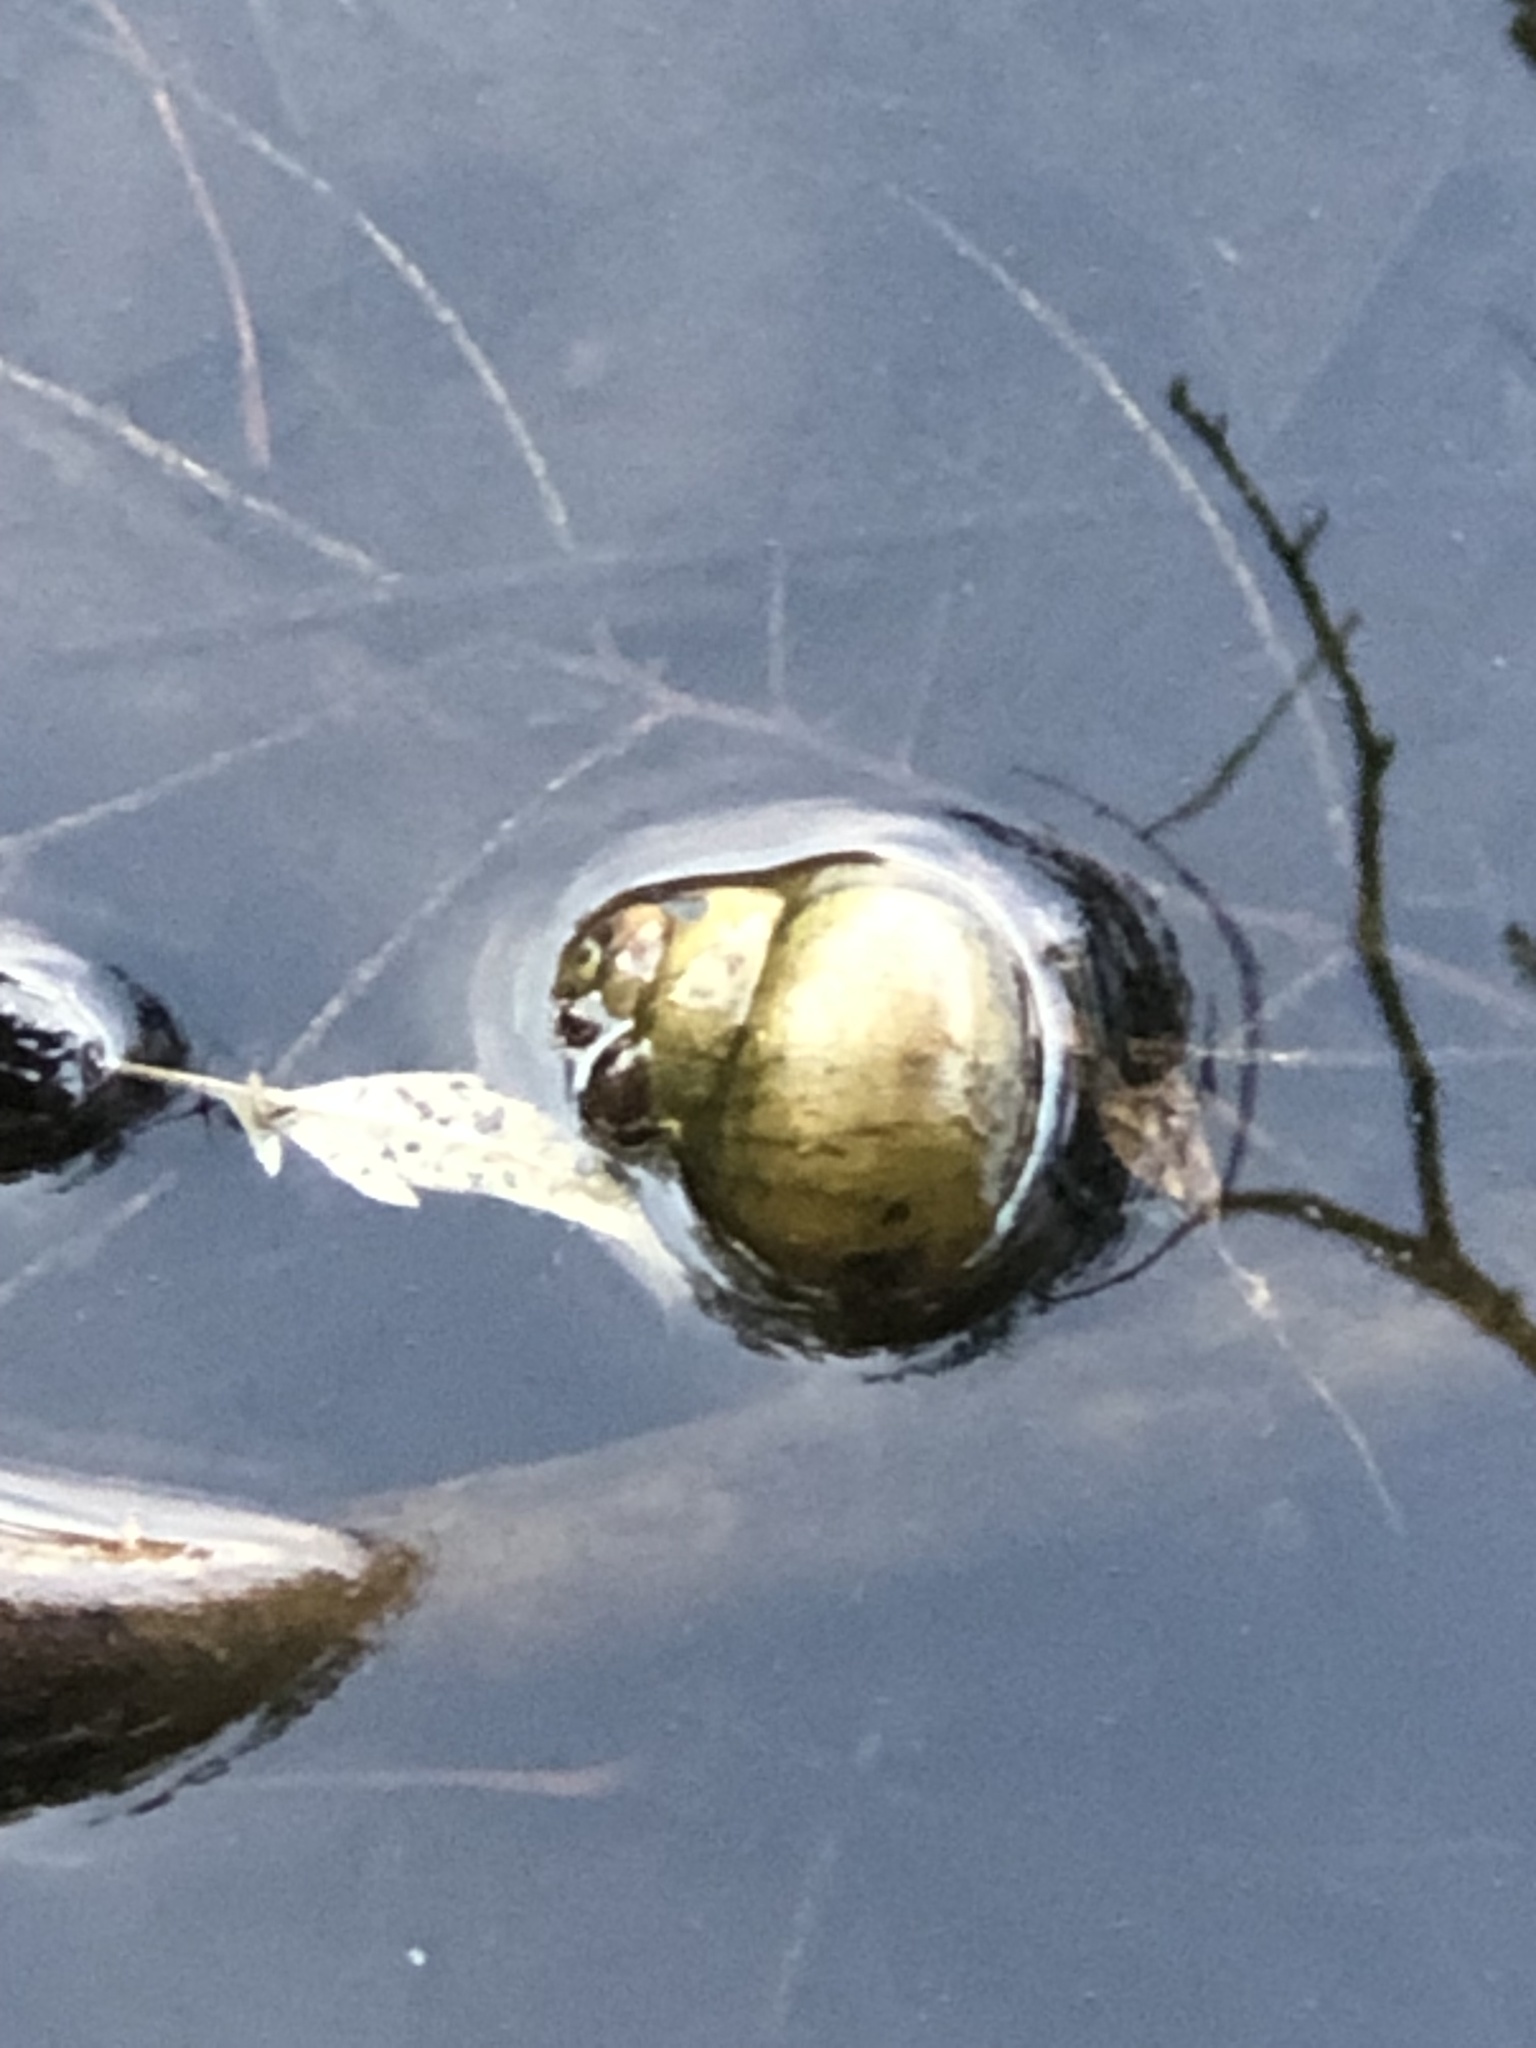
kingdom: Animalia
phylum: Mollusca
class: Gastropoda
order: Architaenioglossa
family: Viviparidae
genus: Cipangopaludina
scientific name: Cipangopaludina chinensis
